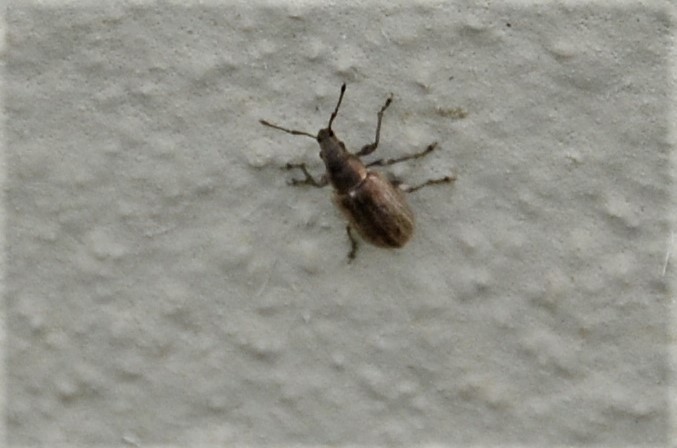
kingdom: Animalia
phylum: Arthropoda
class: Insecta
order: Coleoptera
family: Curculionidae
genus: Phyllobius
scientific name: Phyllobius pyri
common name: Common leaf weevil
